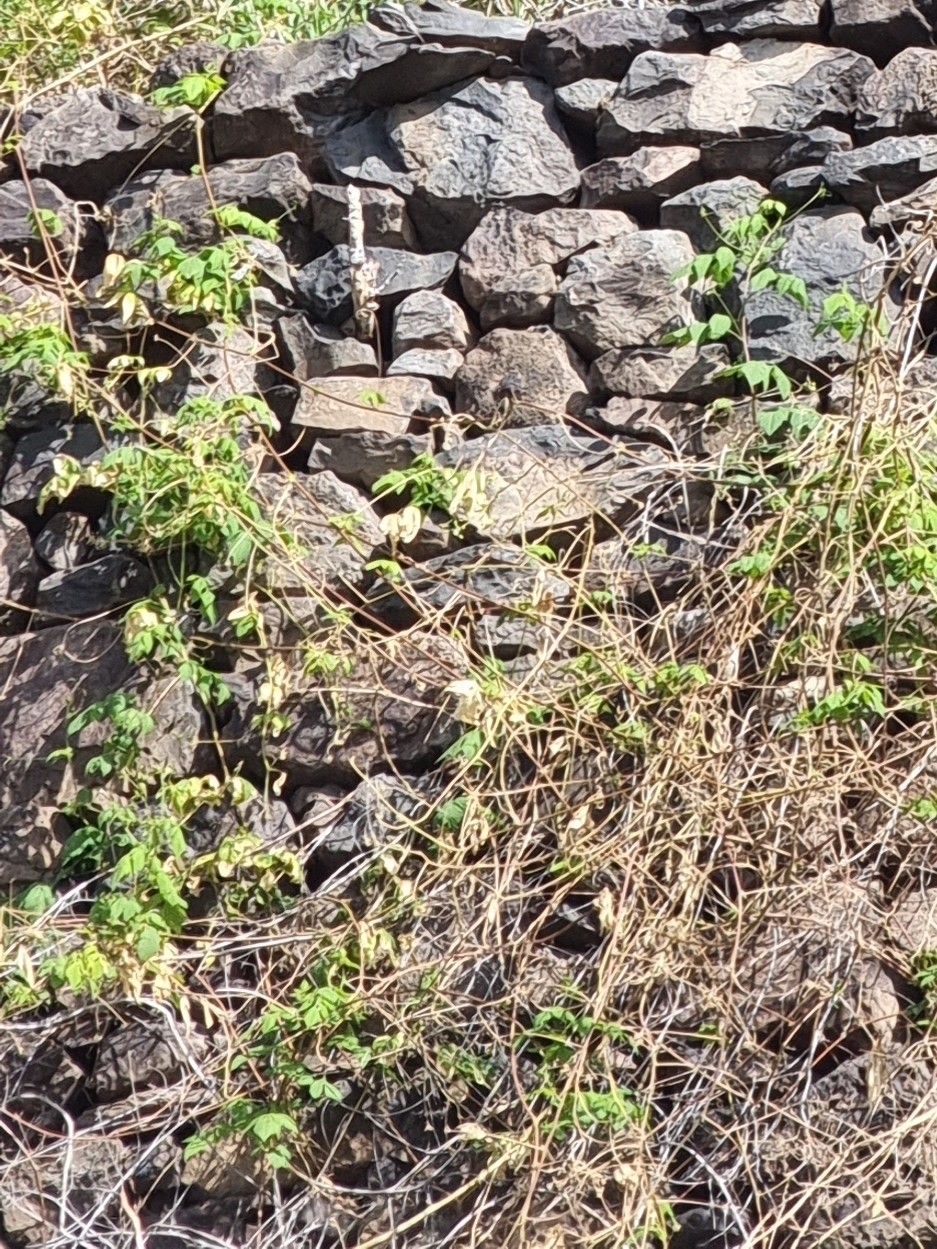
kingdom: Plantae
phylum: Tracheophyta
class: Magnoliopsida
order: Sapindales
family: Sapindaceae
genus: Cardiospermum
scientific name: Cardiospermum grandiflorum
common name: Balloon vine
